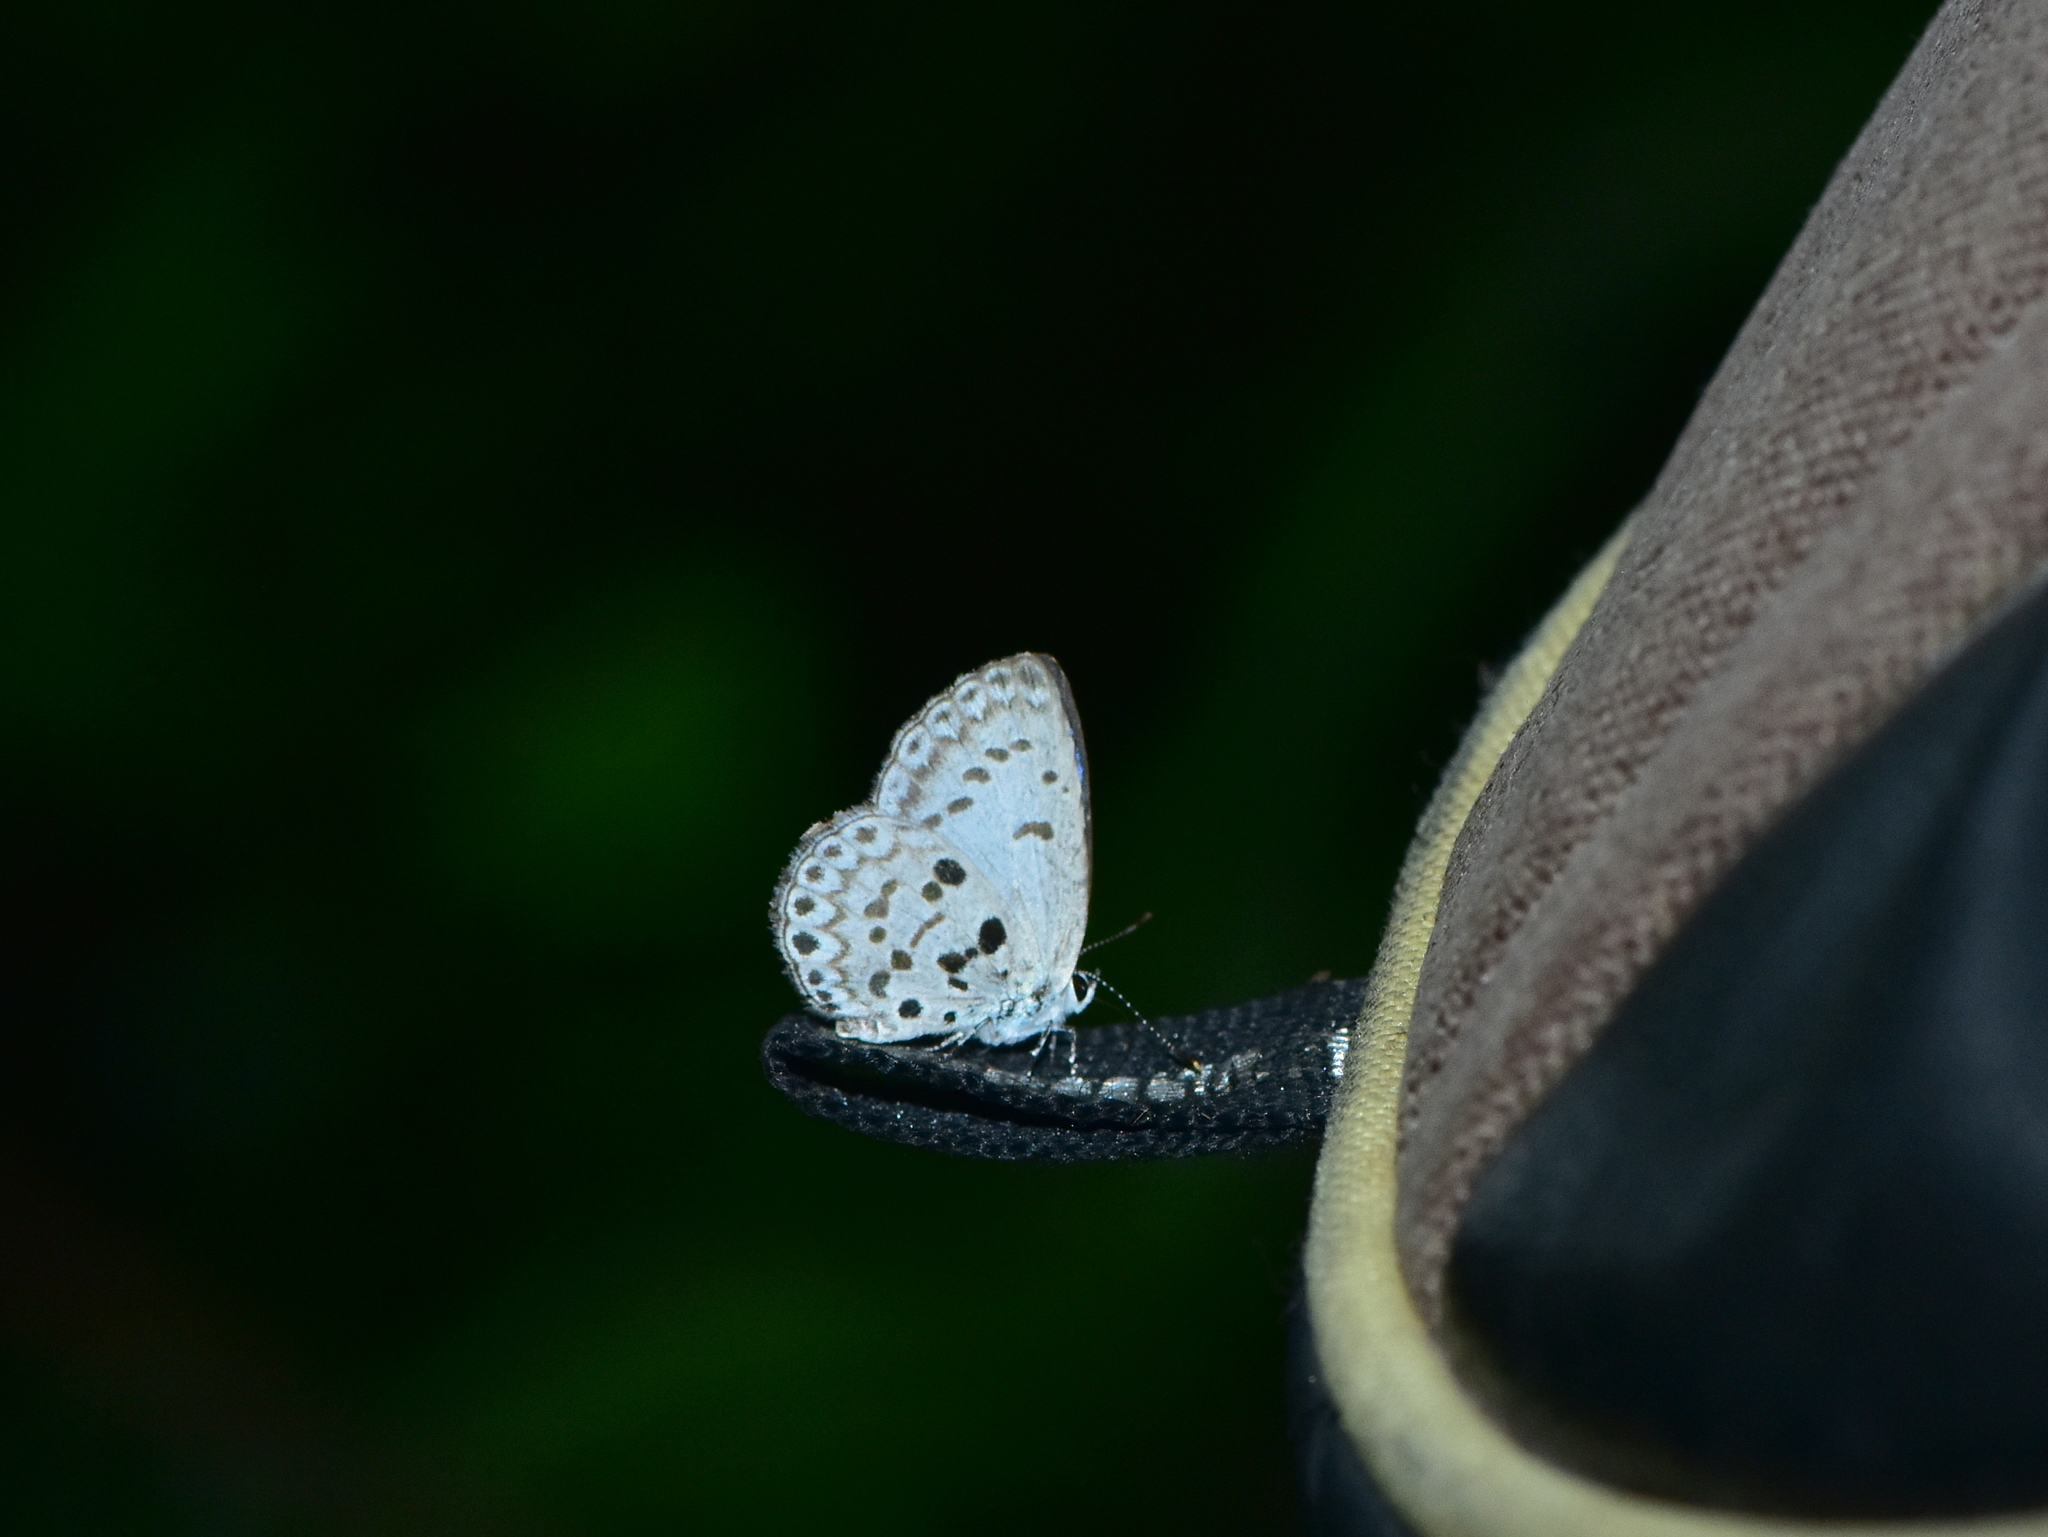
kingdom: Animalia
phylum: Arthropoda
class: Insecta
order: Lepidoptera
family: Lycaenidae
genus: Acytolepis
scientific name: Acytolepis
